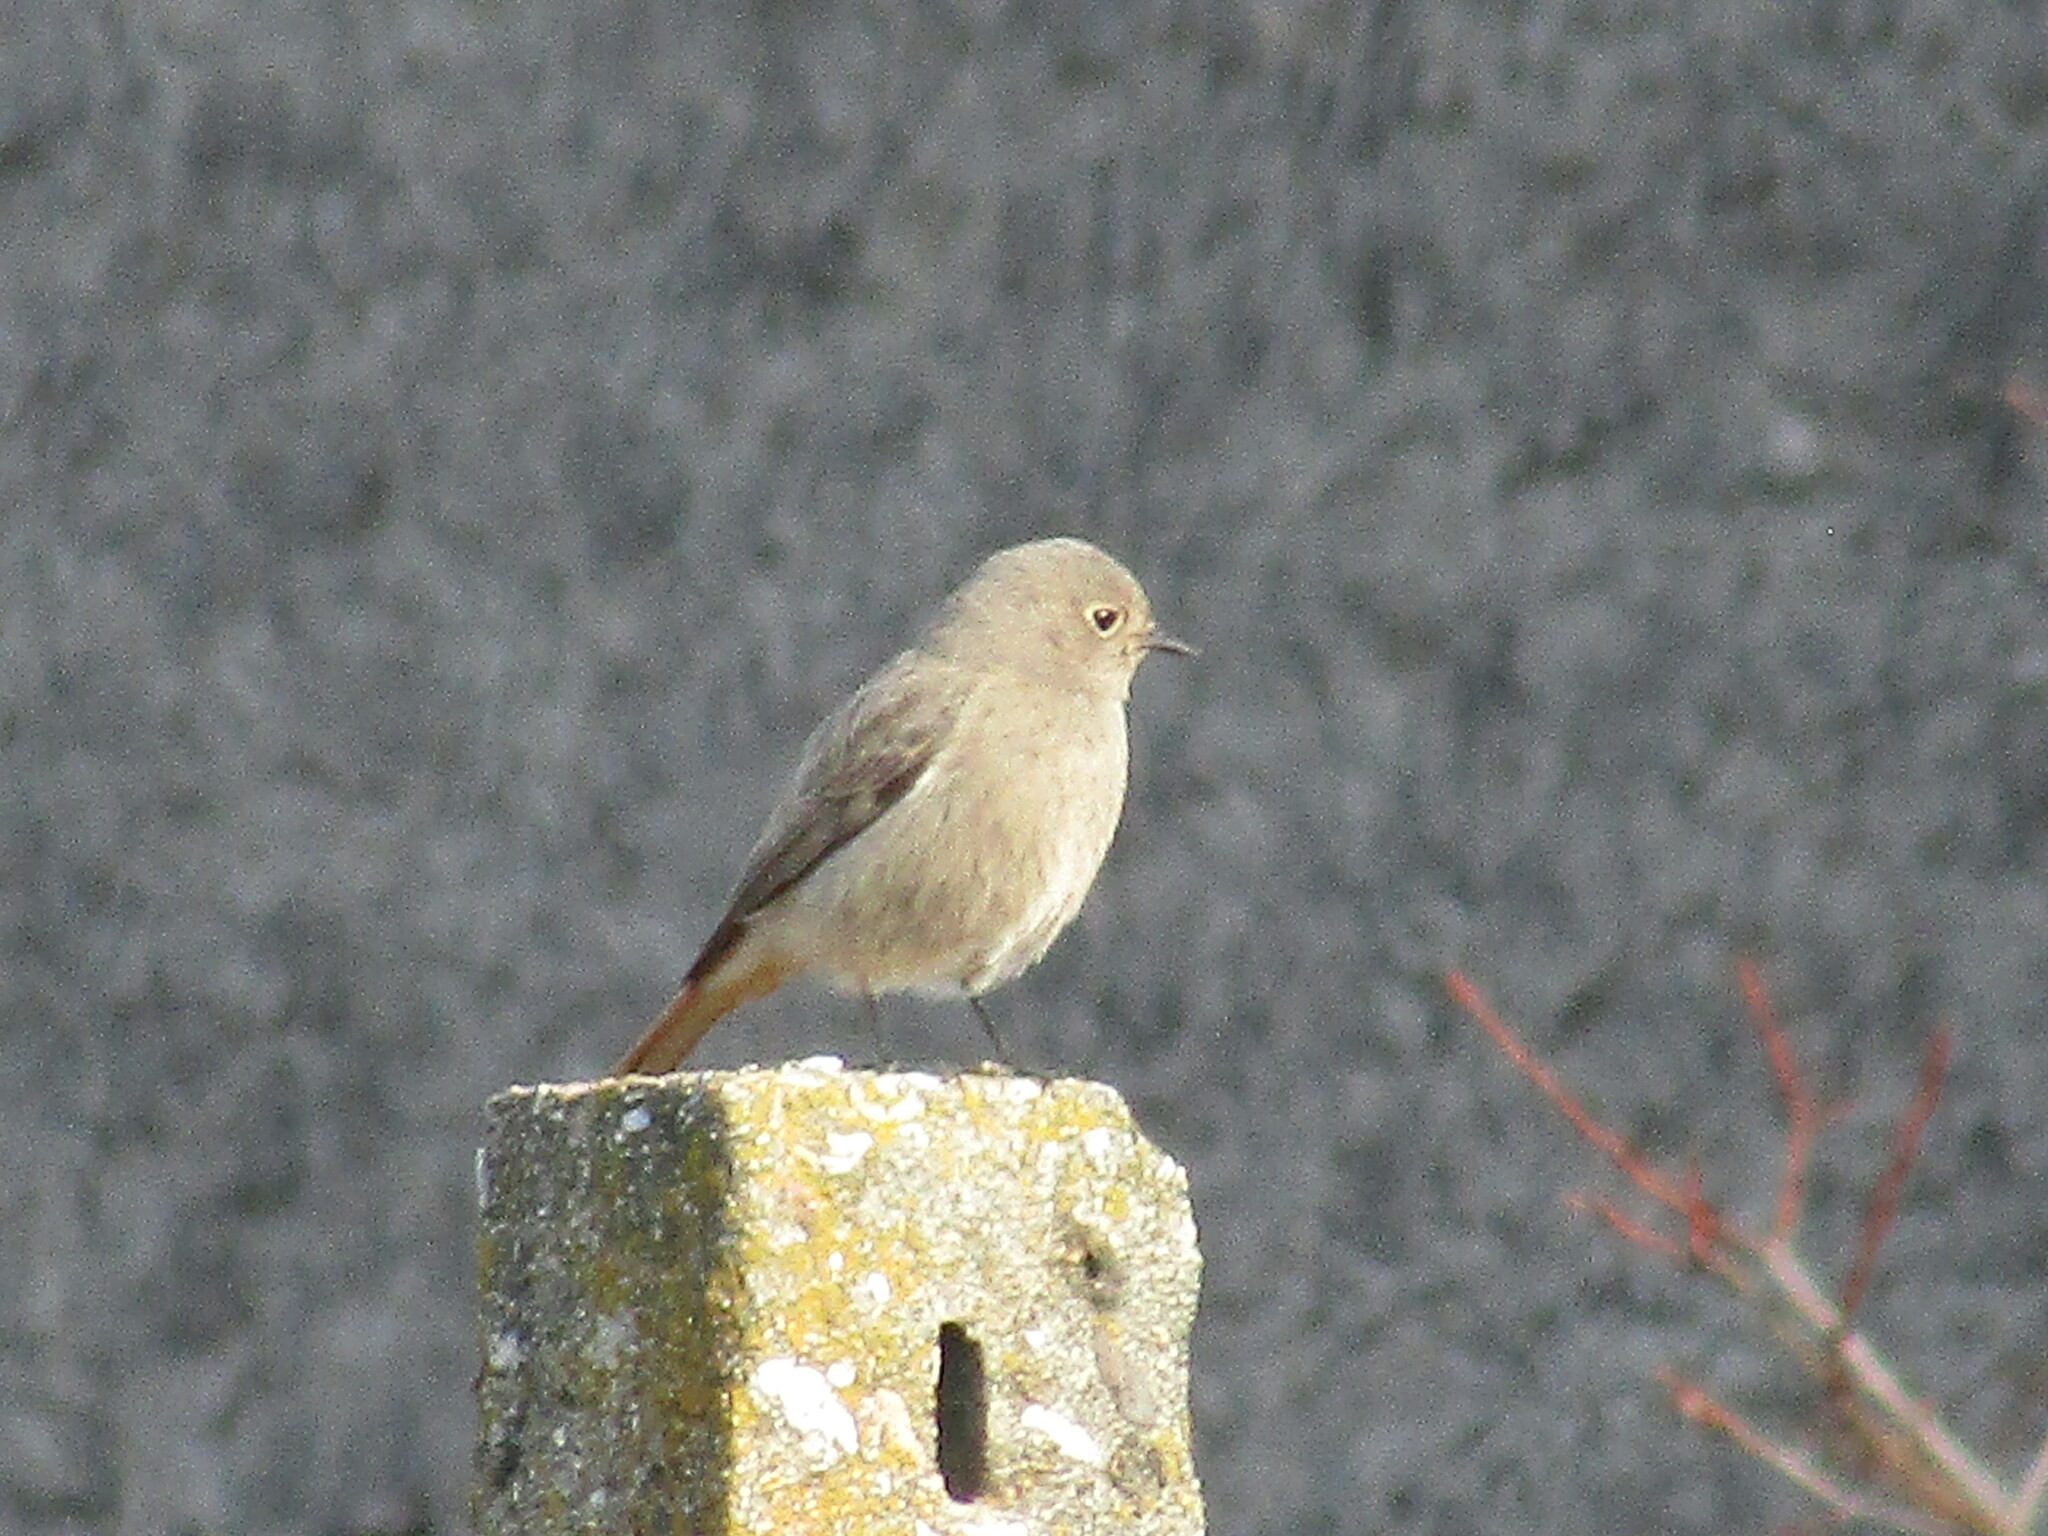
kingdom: Animalia
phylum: Chordata
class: Aves
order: Passeriformes
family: Muscicapidae
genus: Phoenicurus
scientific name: Phoenicurus ochruros
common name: Black redstart
